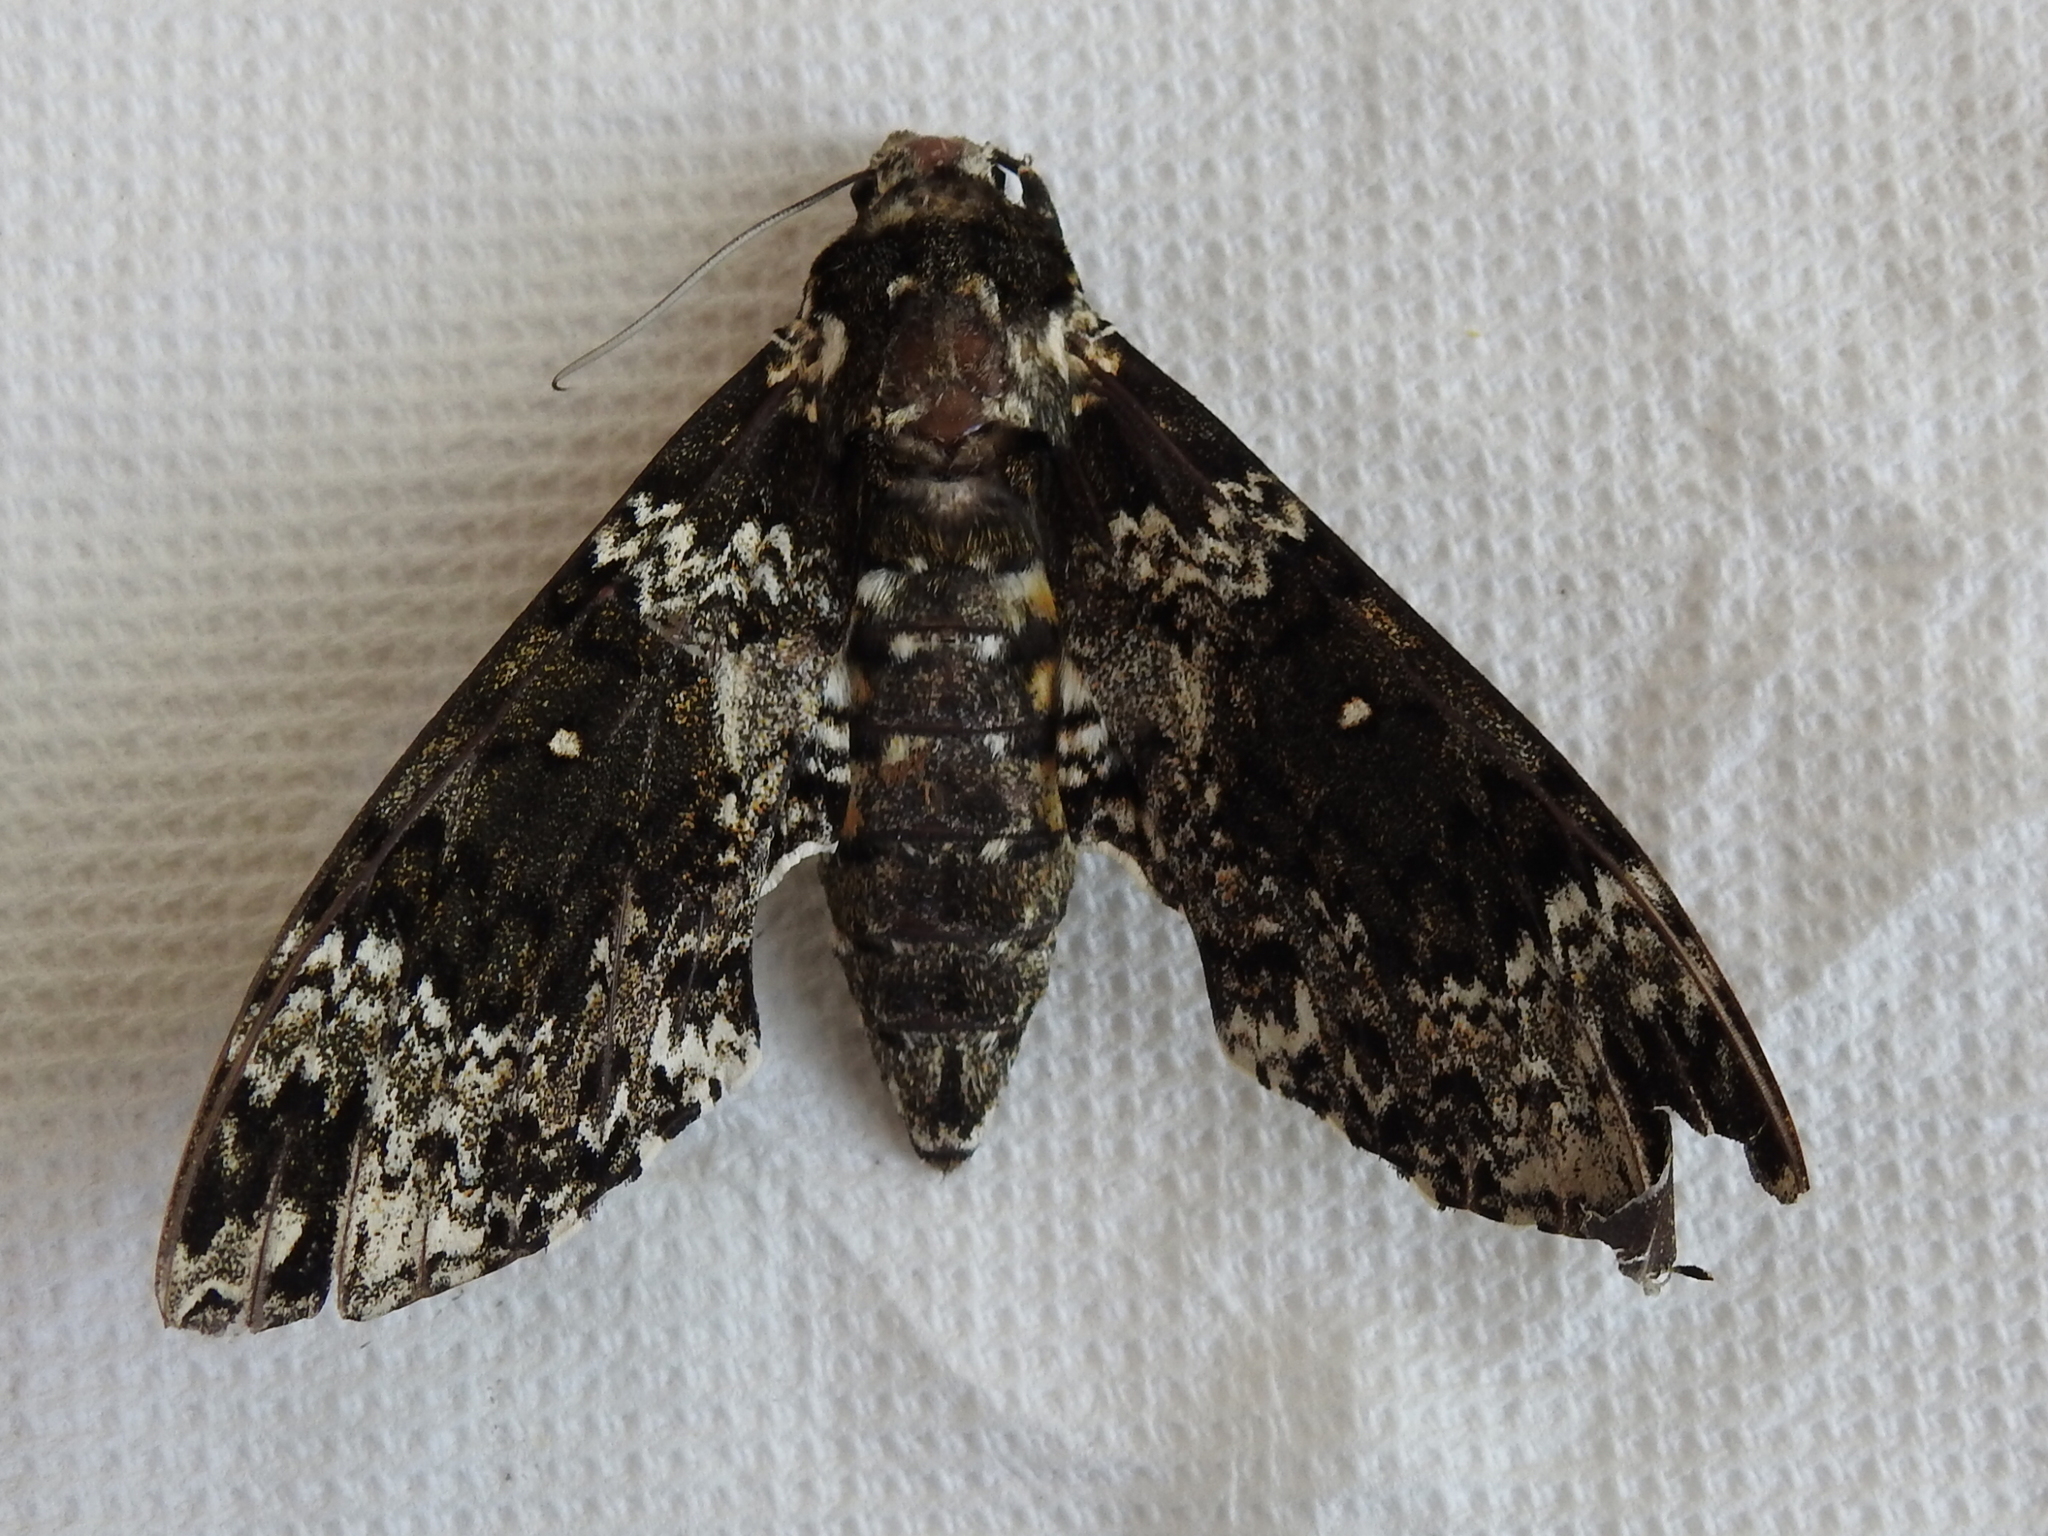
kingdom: Animalia
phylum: Arthropoda
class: Insecta
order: Lepidoptera
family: Sphingidae
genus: Manduca
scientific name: Manduca rustica
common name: Rustic sphinx
